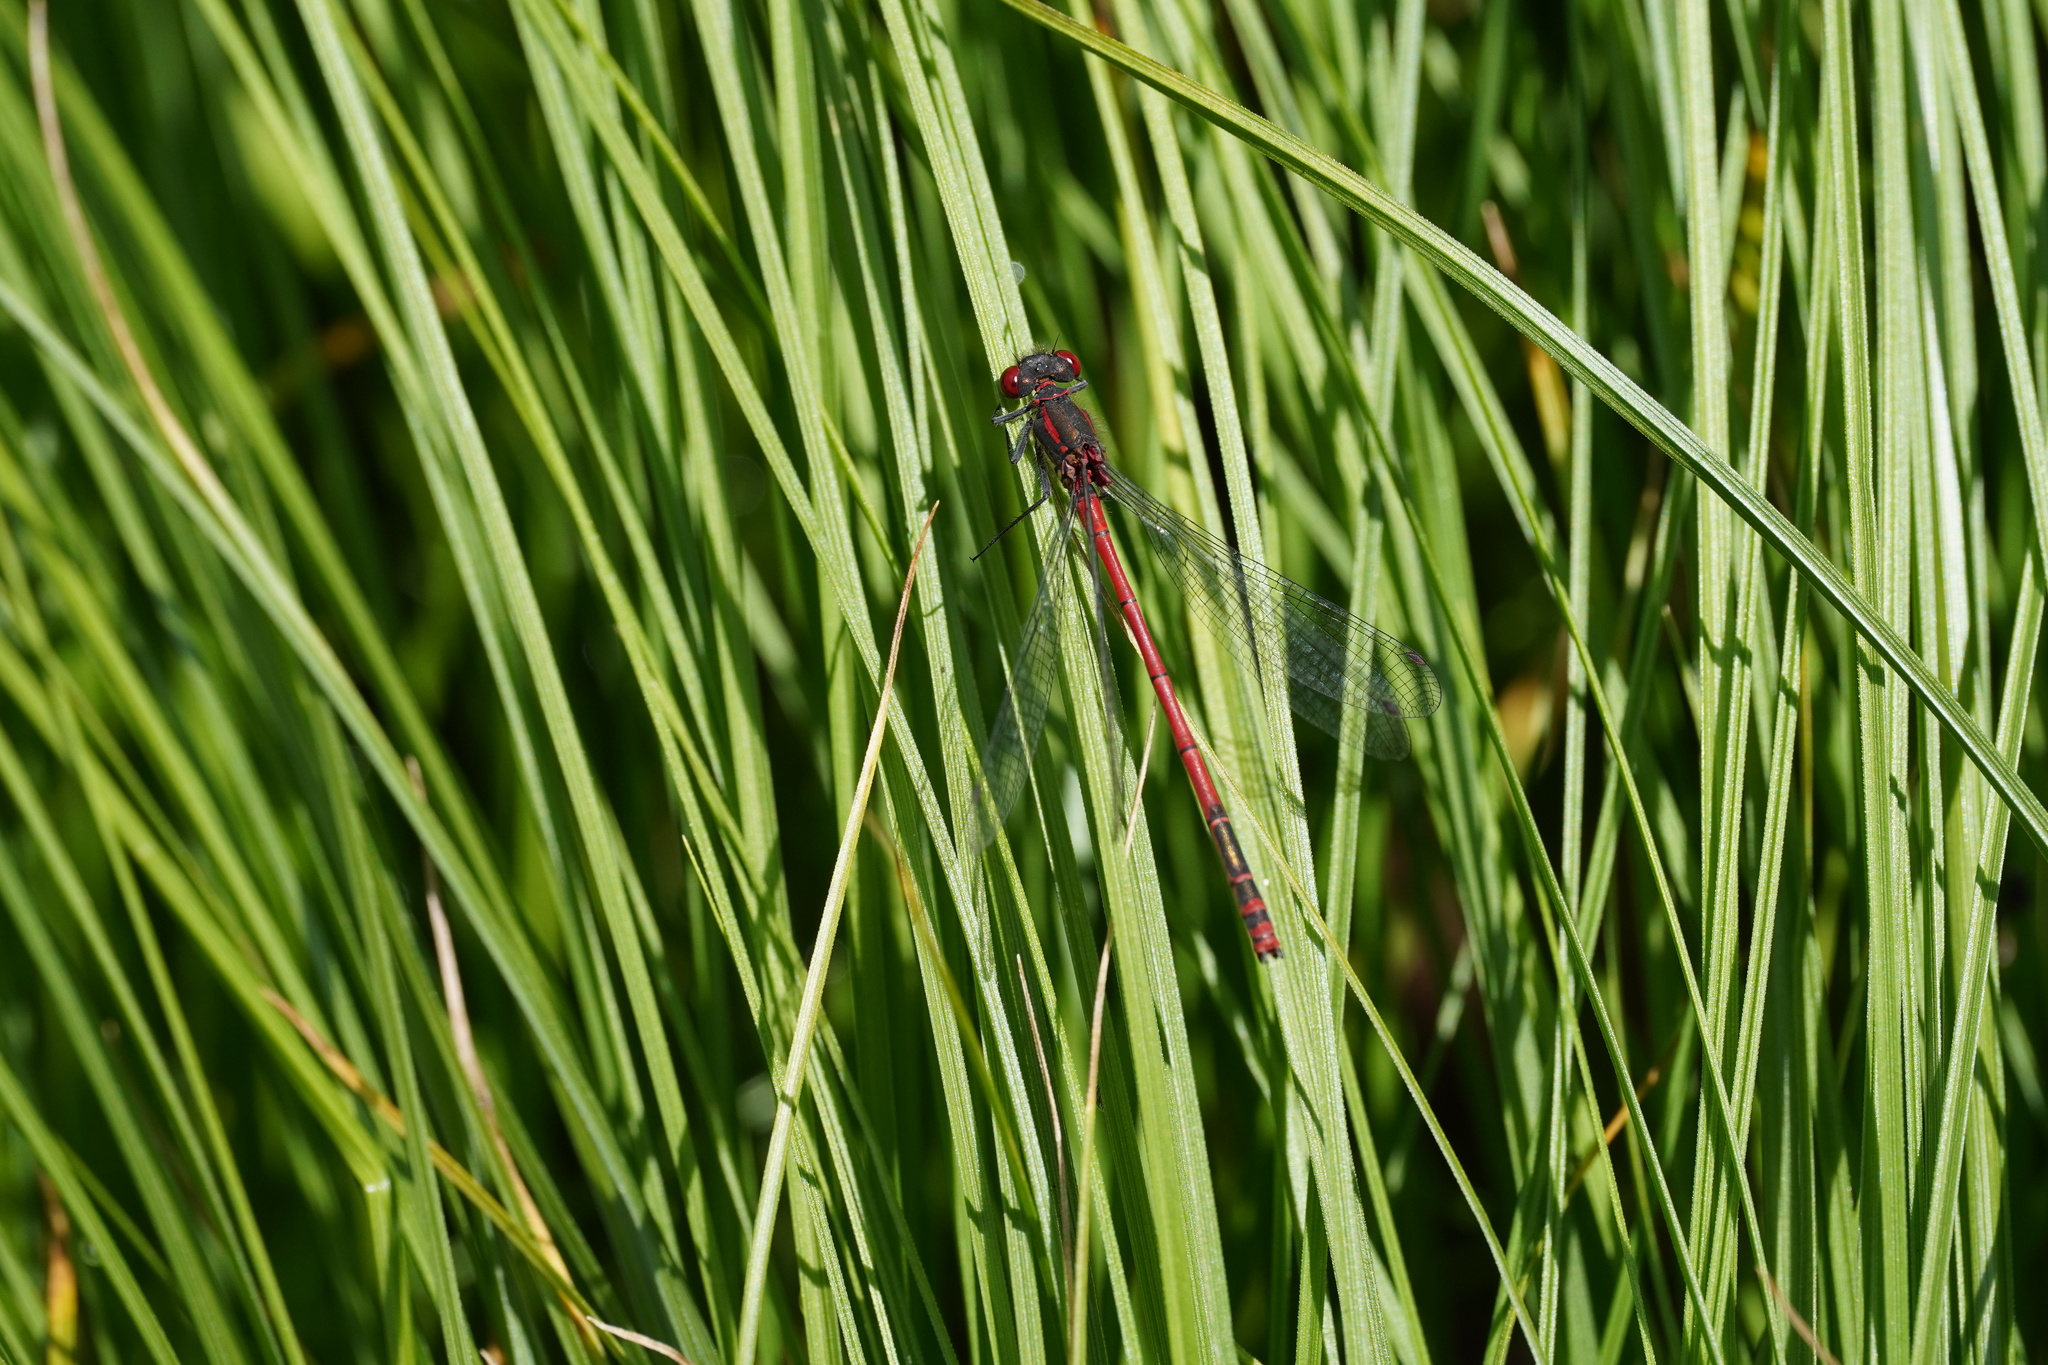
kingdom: Animalia
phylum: Arthropoda
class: Insecta
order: Odonata
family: Coenagrionidae
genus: Pyrrhosoma
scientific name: Pyrrhosoma nymphula
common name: Large red damsel
